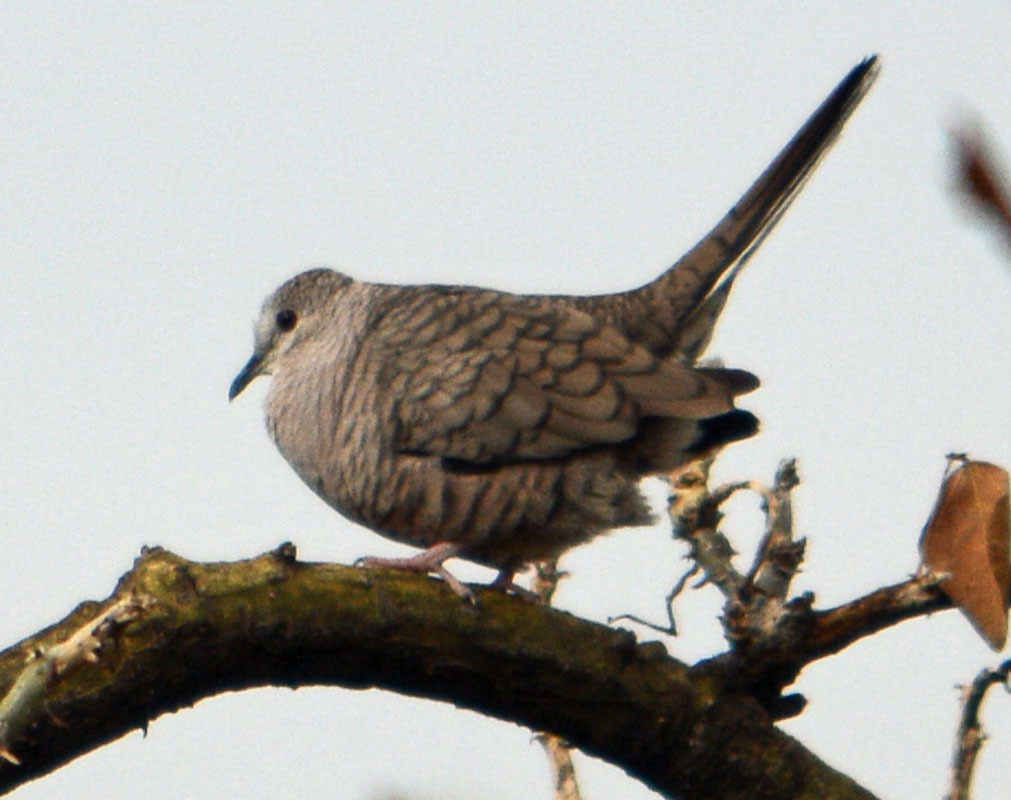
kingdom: Animalia
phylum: Chordata
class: Aves
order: Columbiformes
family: Columbidae
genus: Columbina
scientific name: Columbina inca
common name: Inca dove
